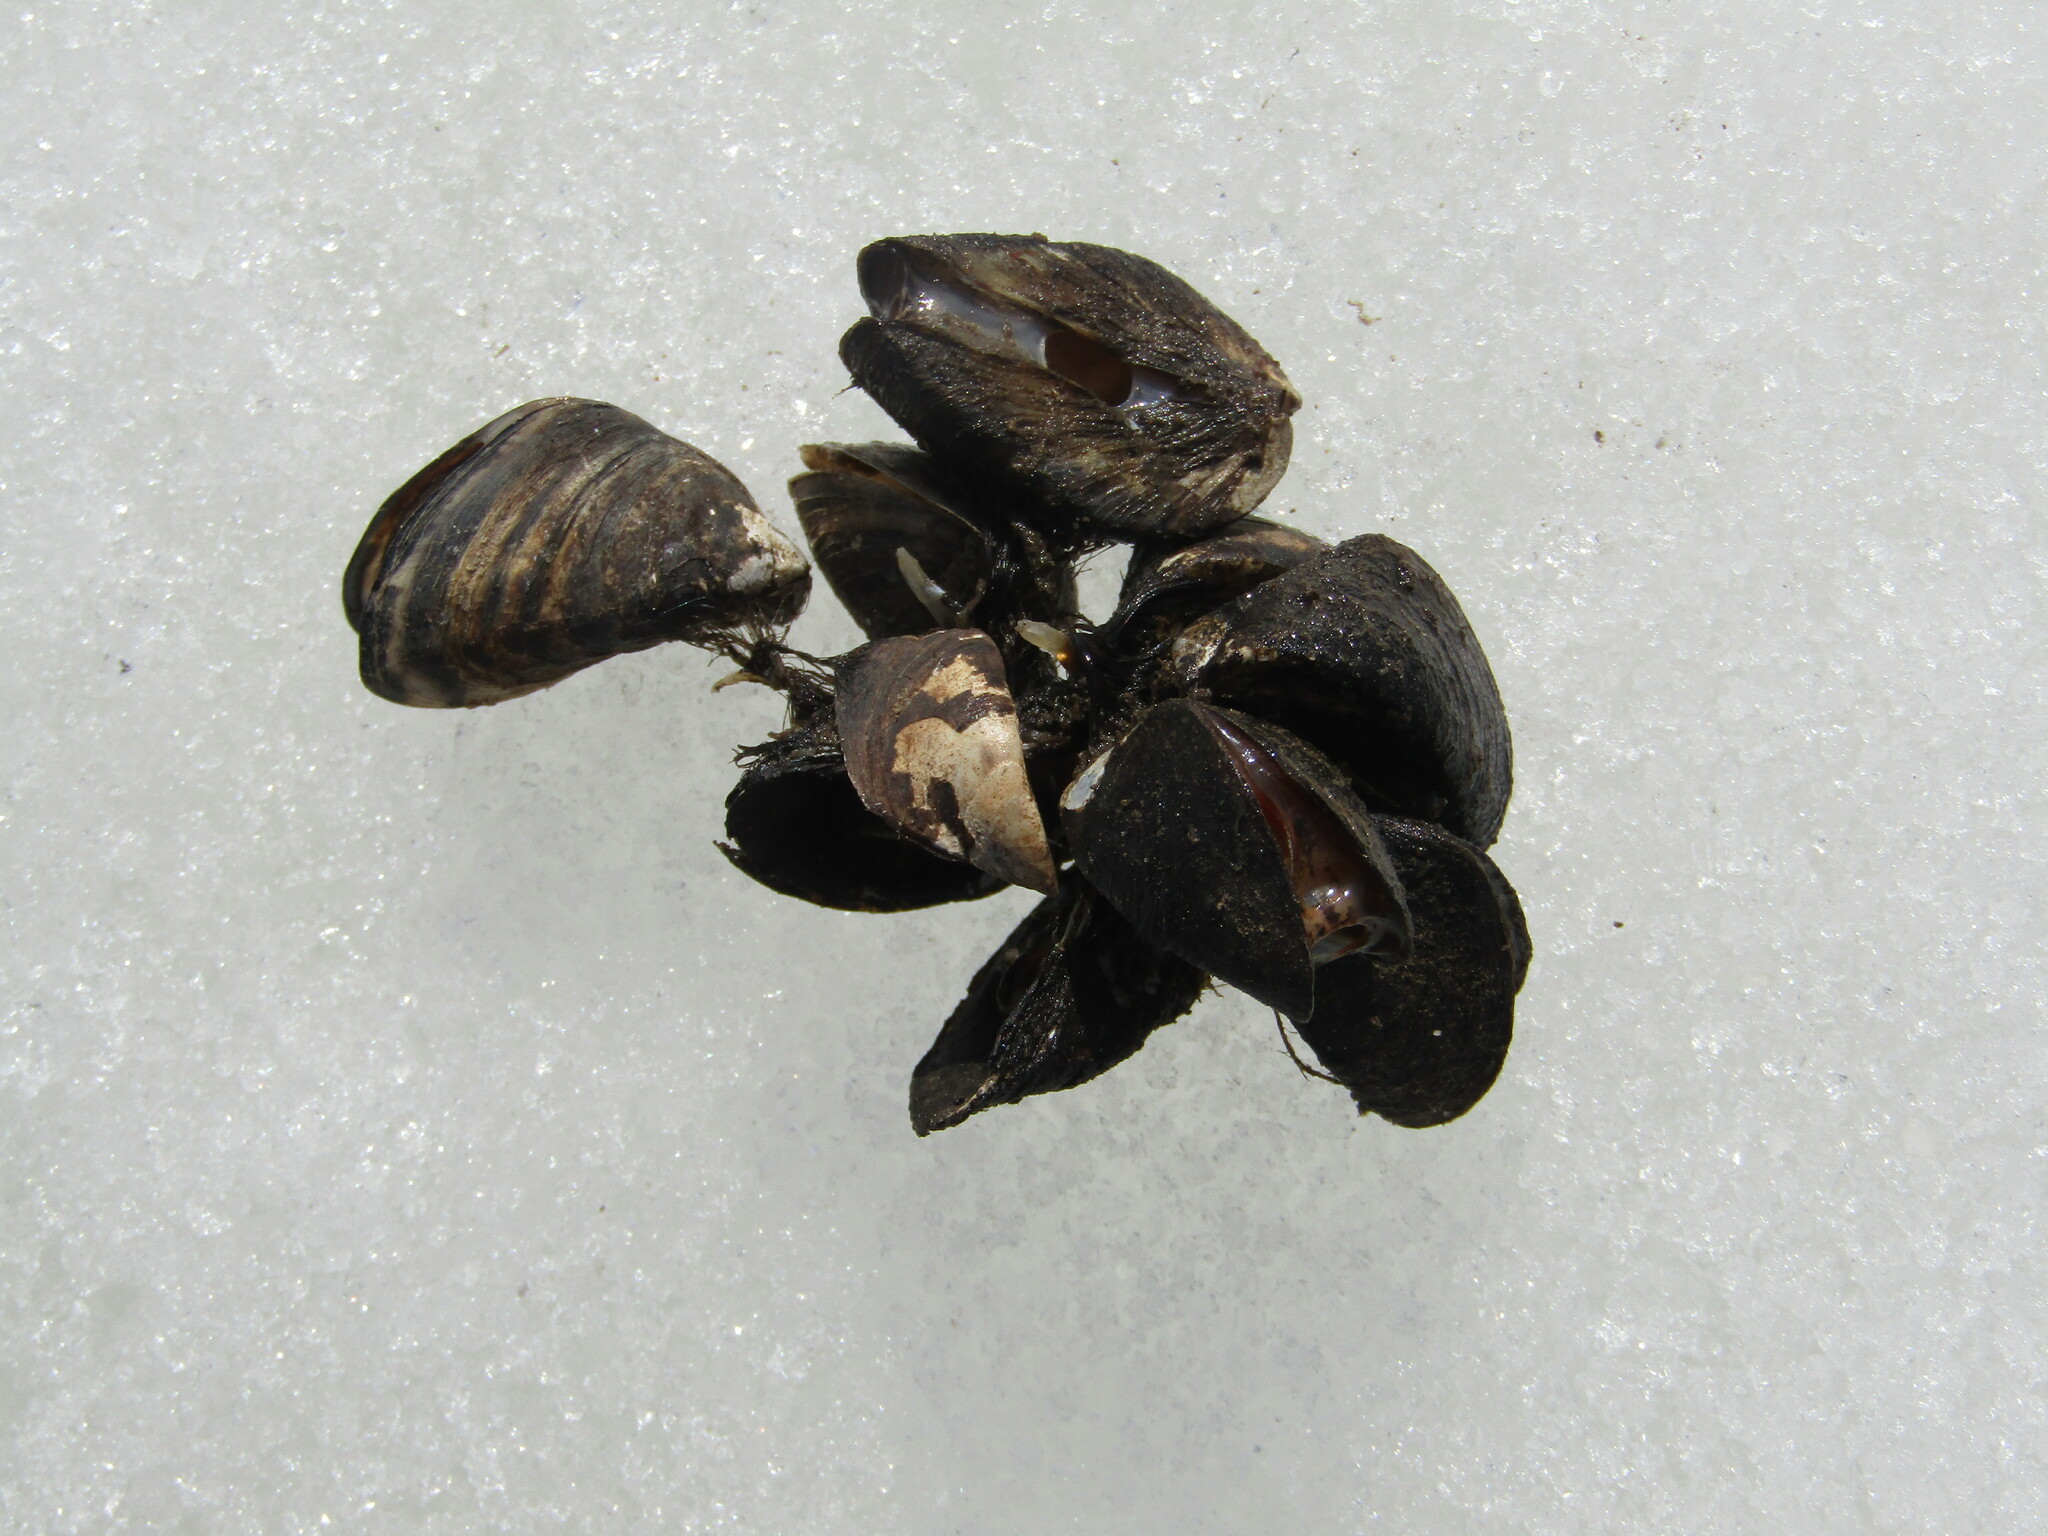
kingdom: Animalia
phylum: Mollusca
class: Bivalvia
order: Myida
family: Dreissenidae
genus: Dreissena
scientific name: Dreissena polymorpha
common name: Zebra mussel
